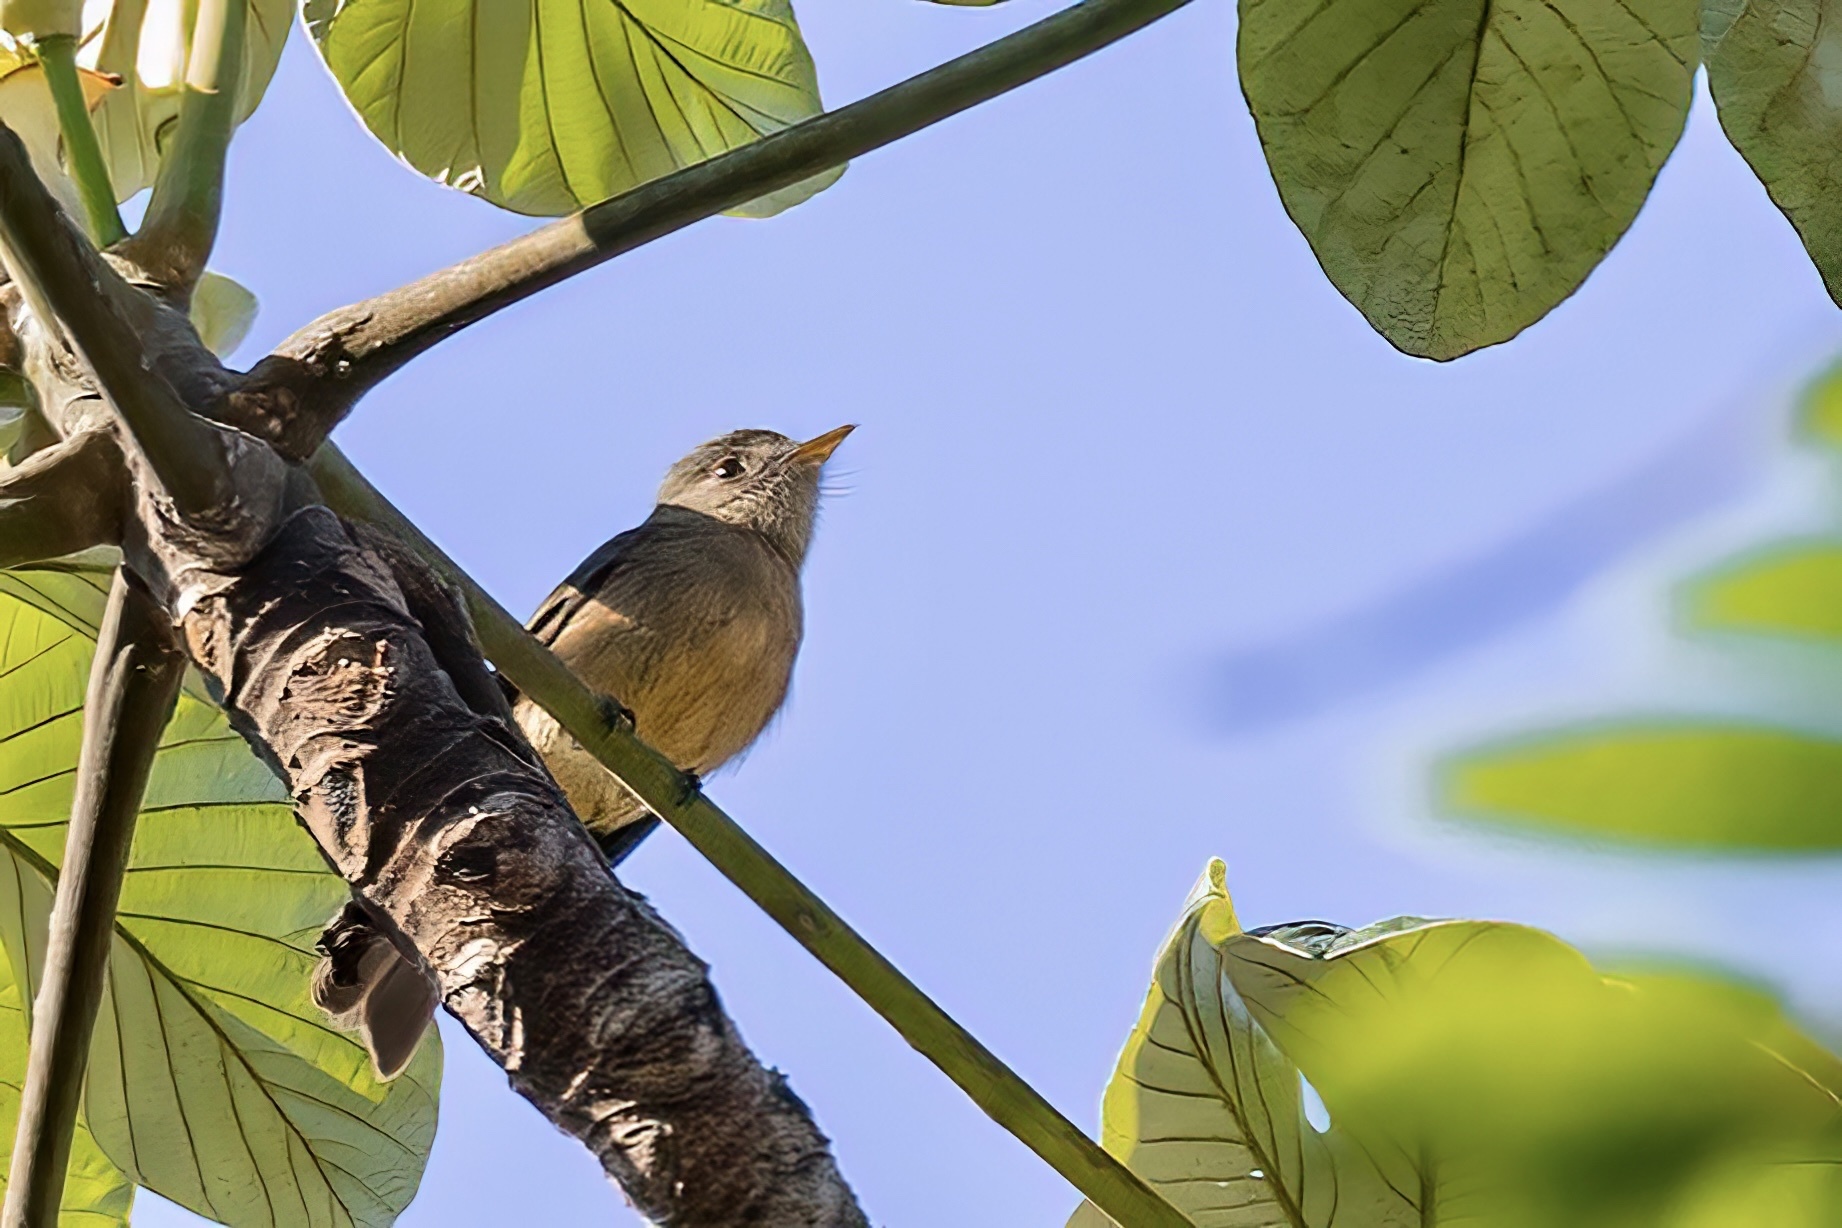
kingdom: Animalia
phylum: Chordata
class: Aves
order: Passeriformes
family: Tyrannidae
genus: Contopus
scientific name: Contopus latirostris
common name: Lesser antillean pewee
